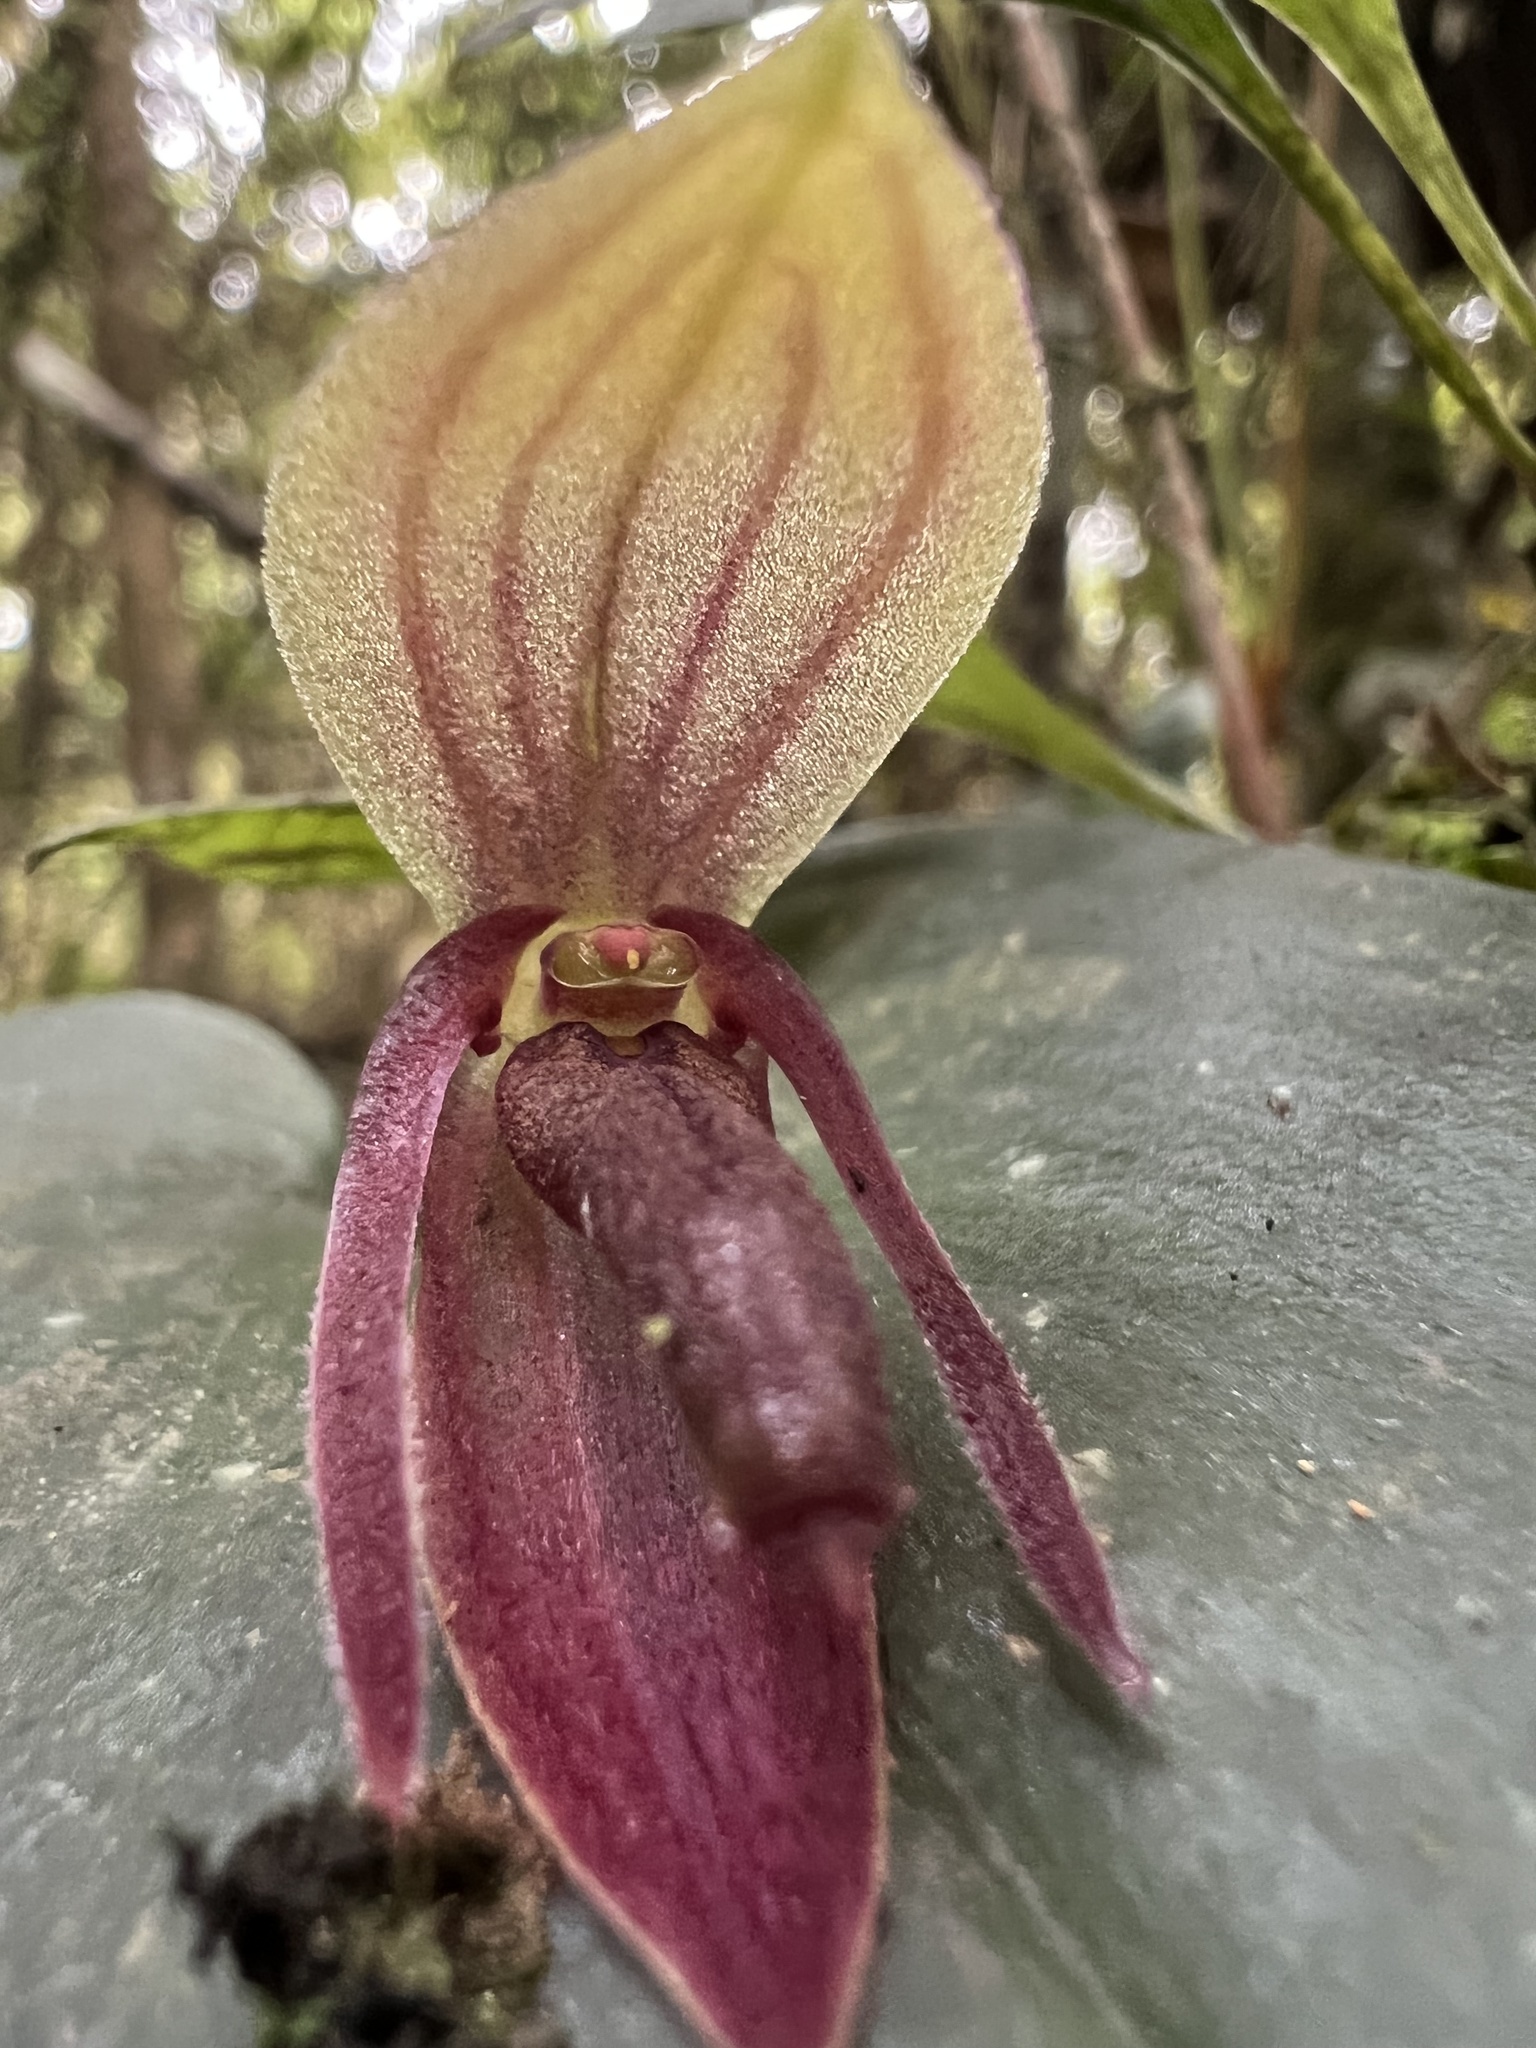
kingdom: Plantae
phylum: Tracheophyta
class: Liliopsida
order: Asparagales
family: Orchidaceae
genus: Pleurothallis
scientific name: Pleurothallis adonis
